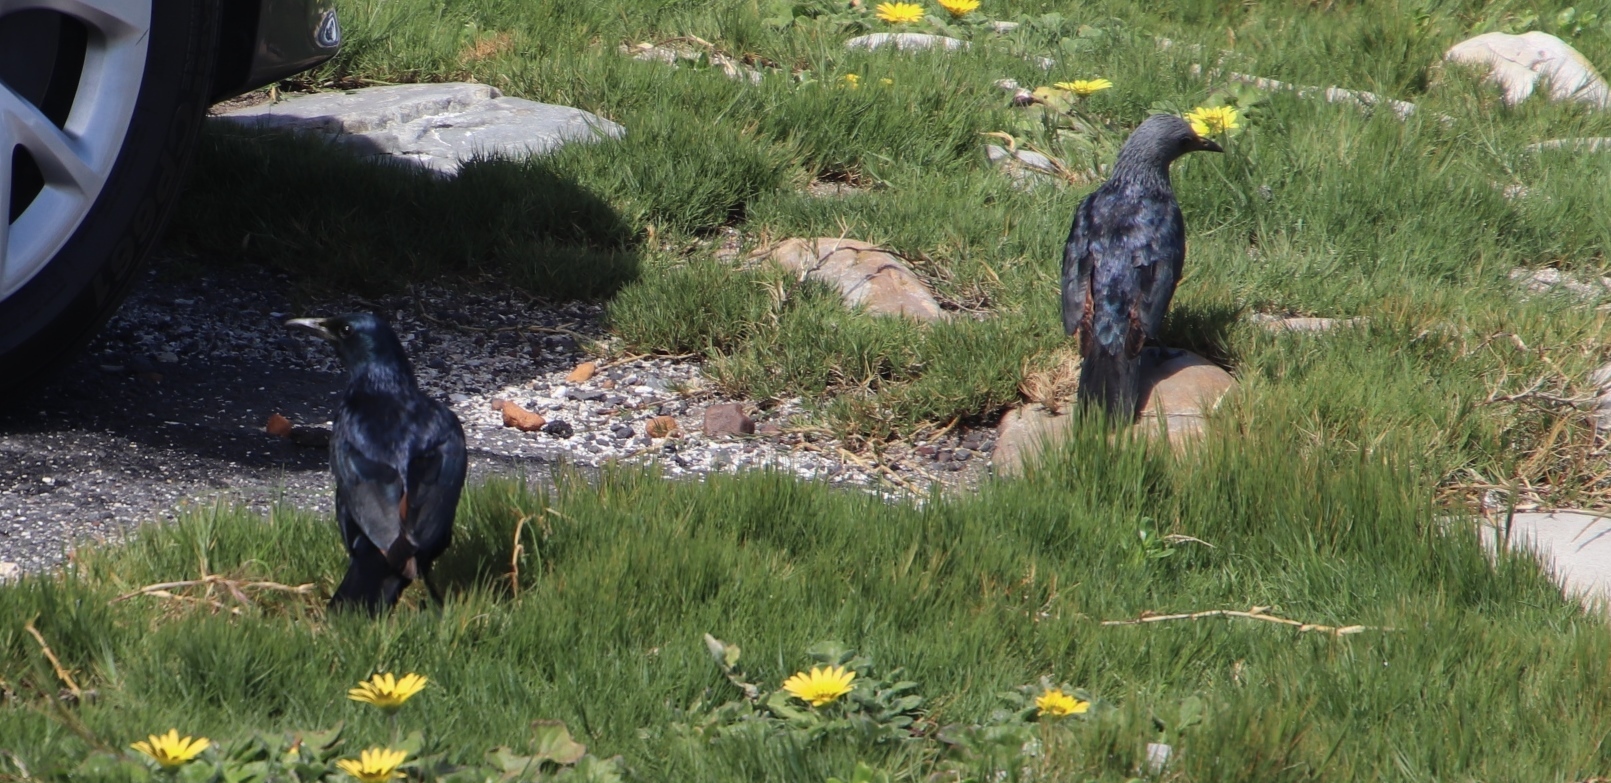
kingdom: Animalia
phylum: Chordata
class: Aves
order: Passeriformes
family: Sturnidae
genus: Onychognathus
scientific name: Onychognathus morio
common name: Red-winged starling
